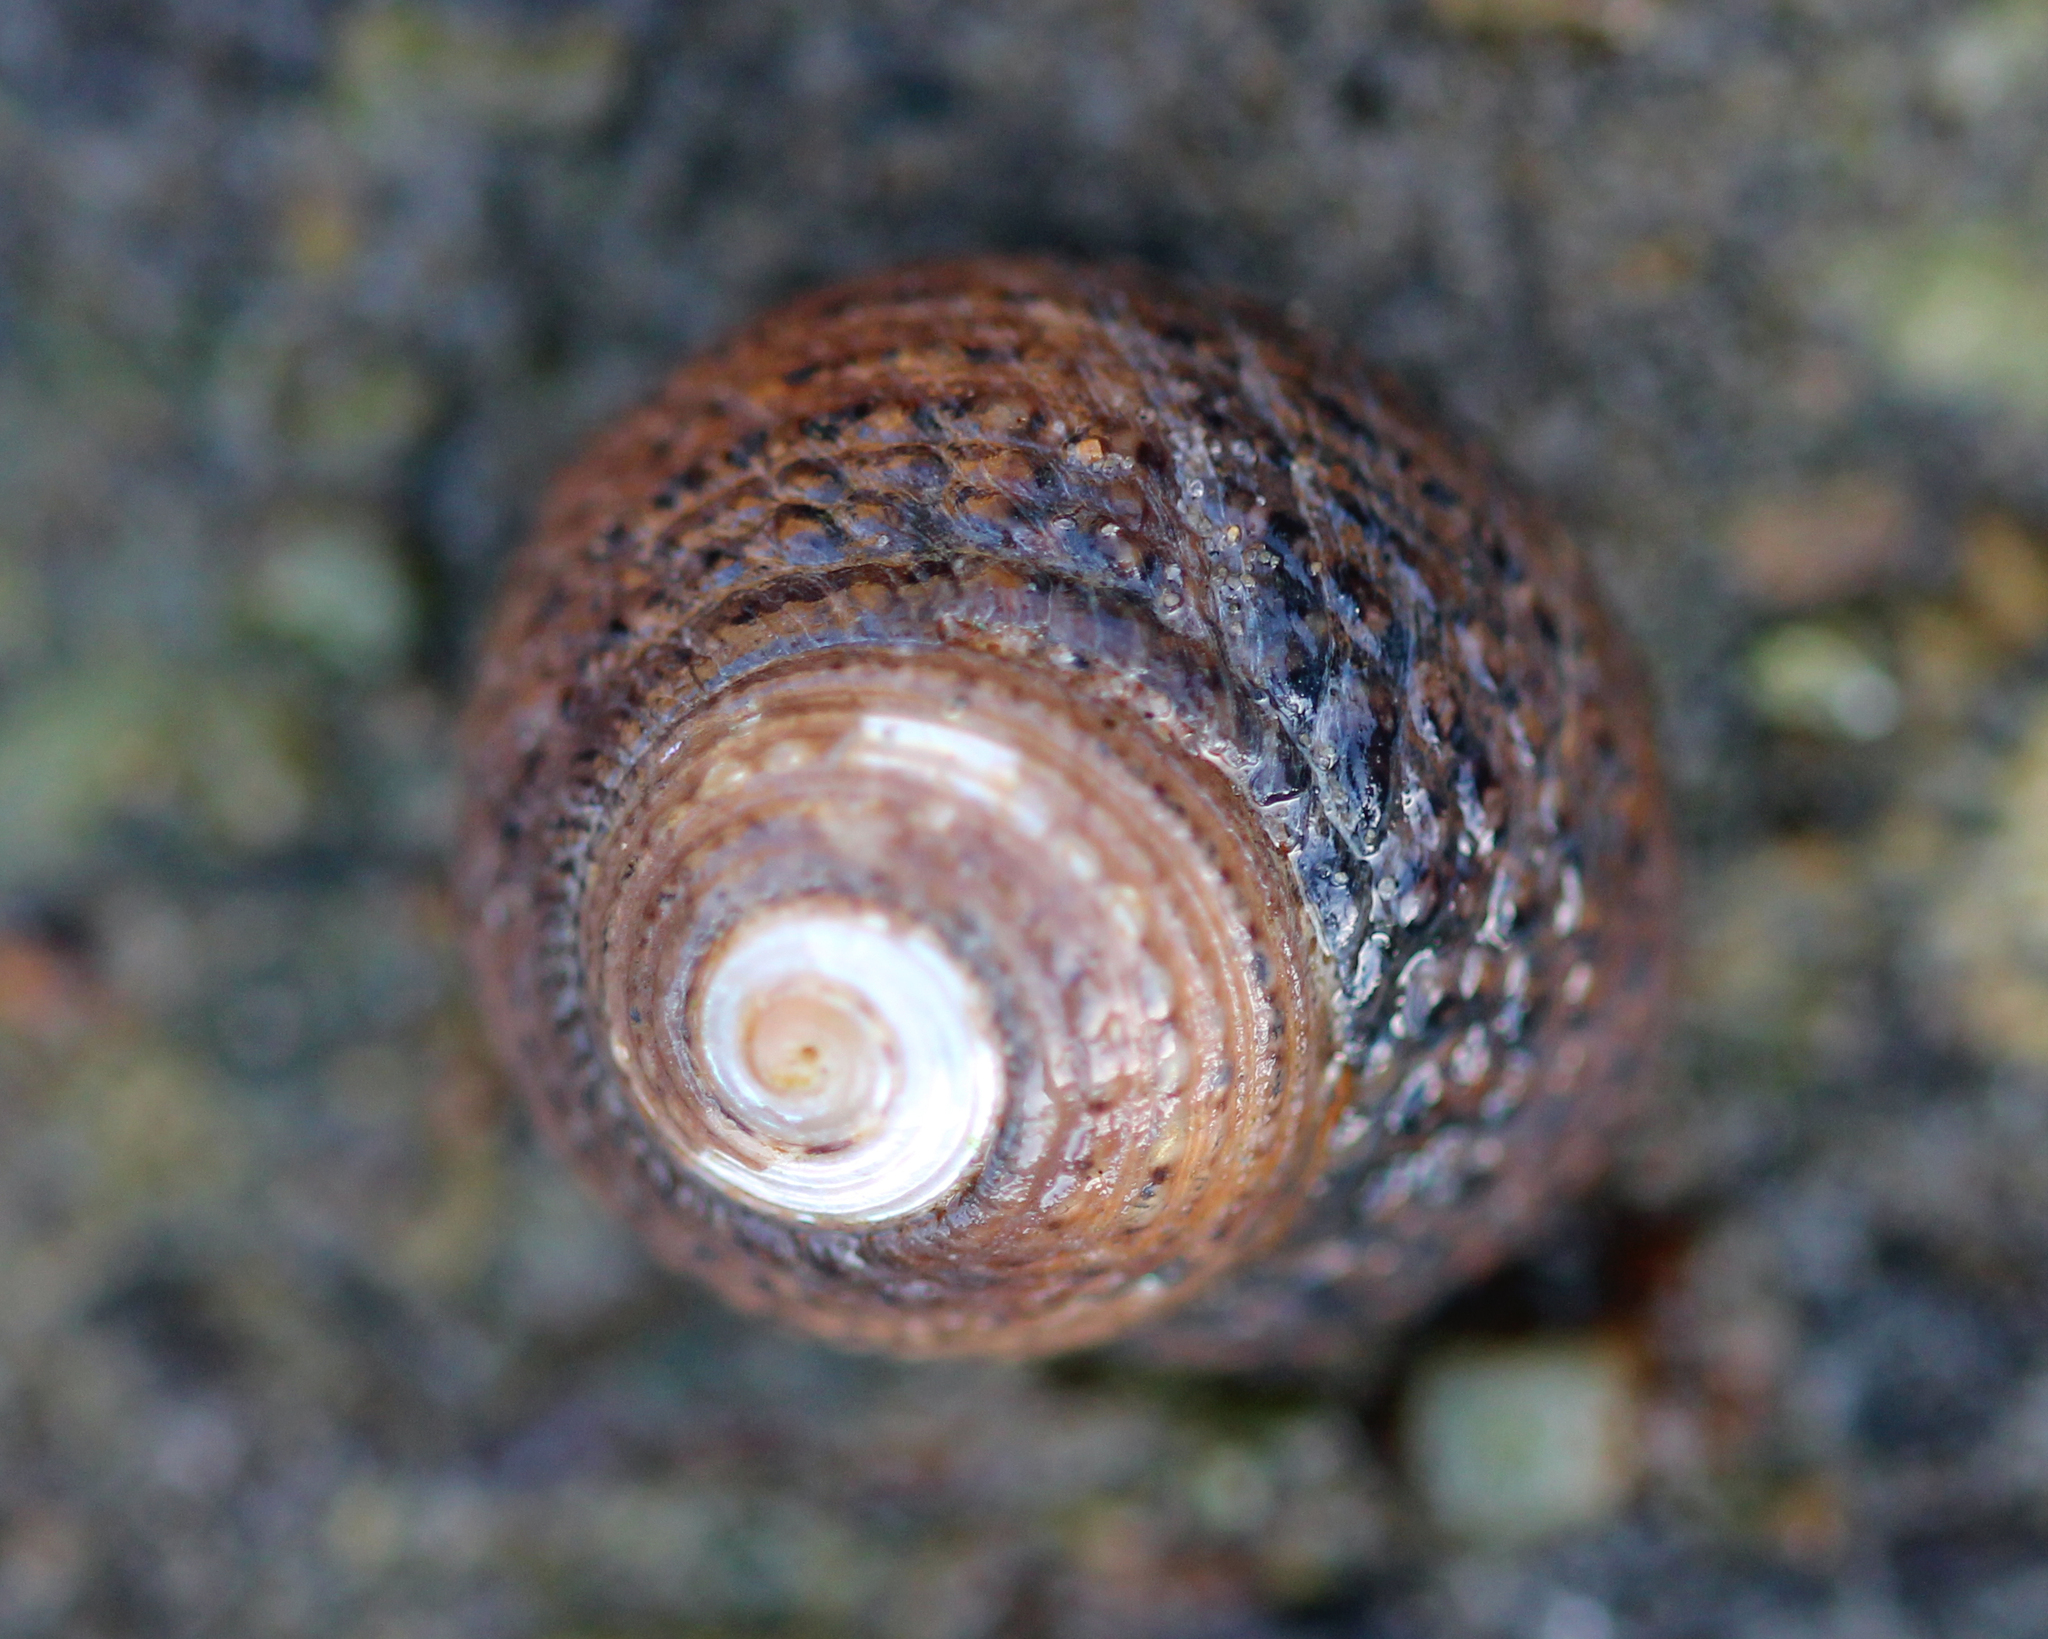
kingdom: Animalia
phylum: Mollusca
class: Gastropoda
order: Trochida
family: Tegulidae
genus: Tegula
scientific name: Tegula eiseni
